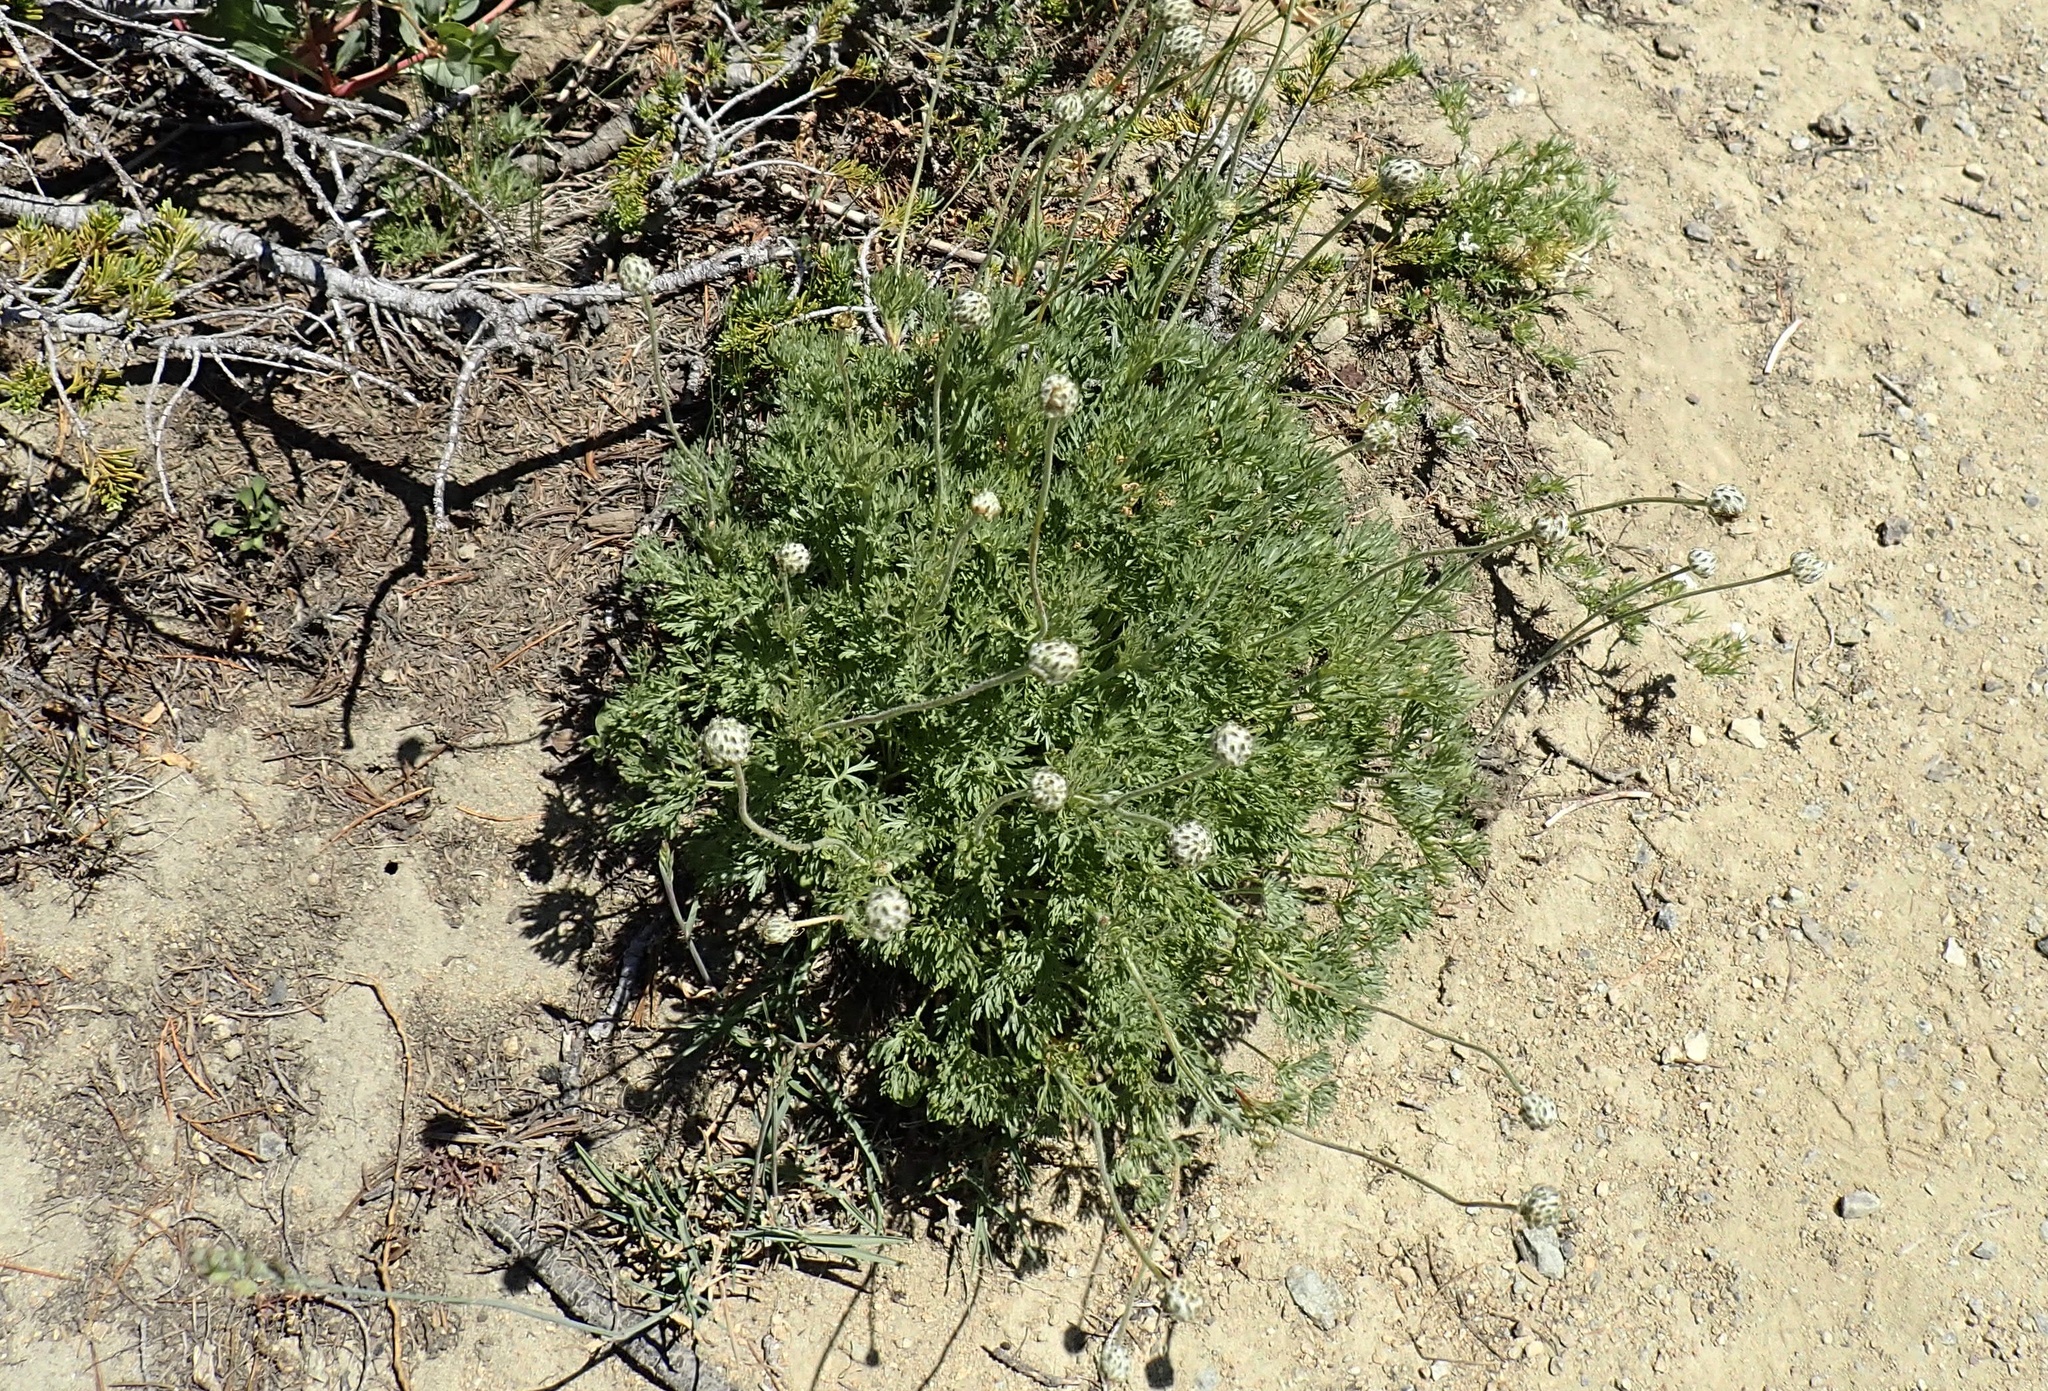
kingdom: Plantae
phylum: Tracheophyta
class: Magnoliopsida
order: Ranunculales
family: Ranunculaceae
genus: Anemone
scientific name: Anemone multifida
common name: Bird's-foot anemone
